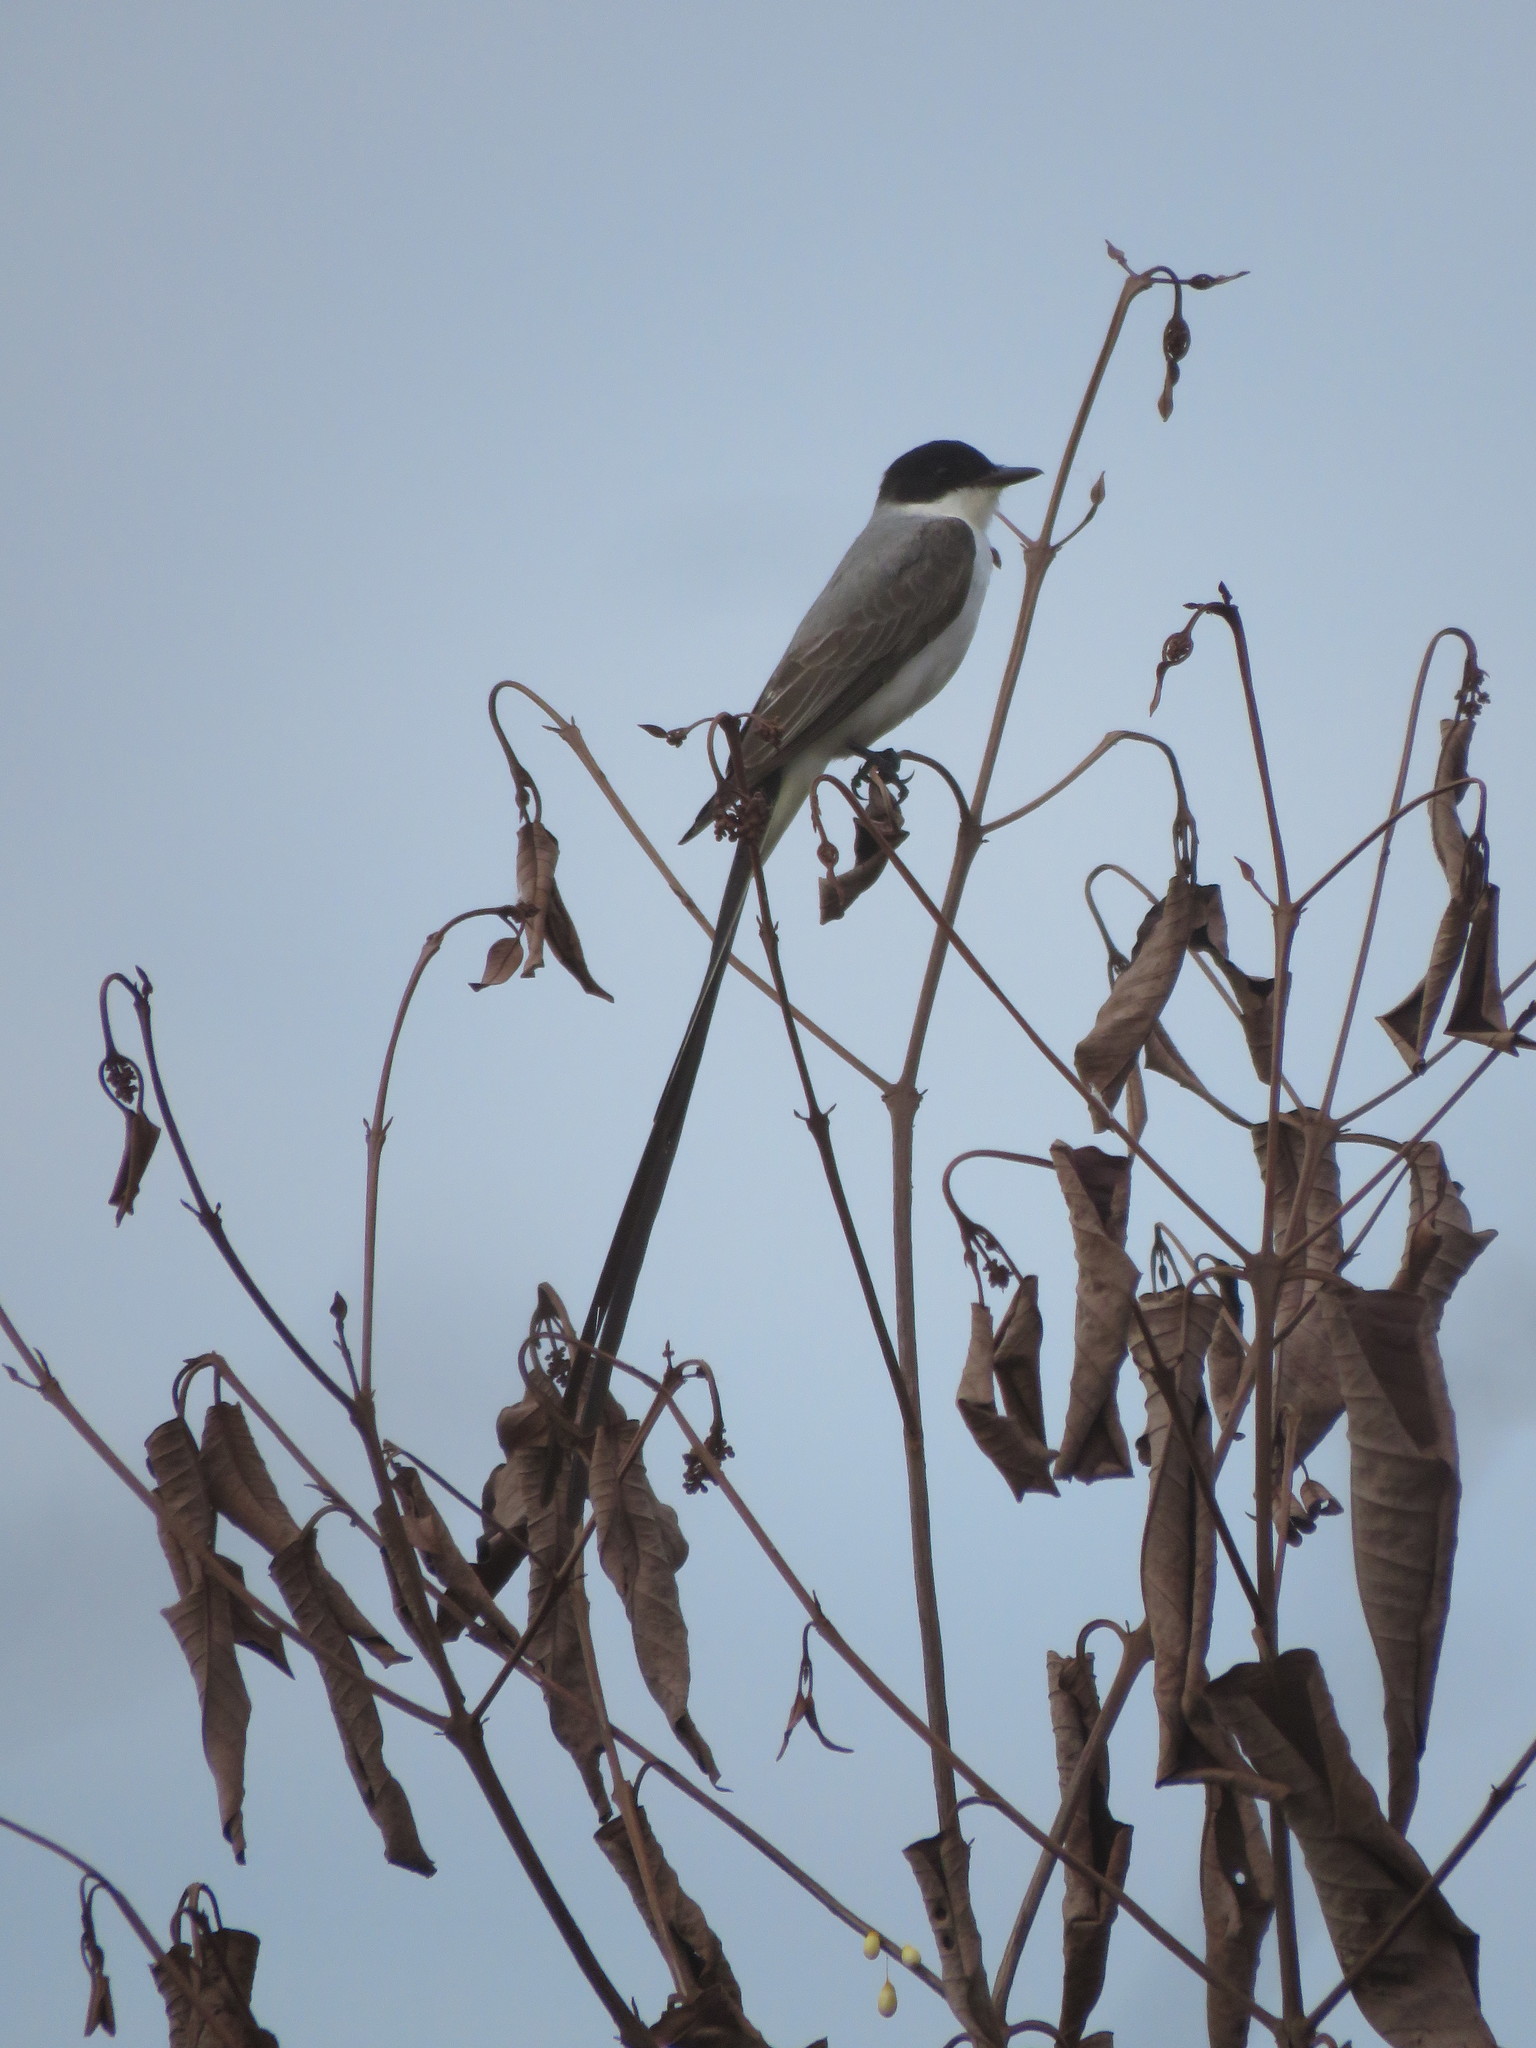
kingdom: Animalia
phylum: Chordata
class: Aves
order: Passeriformes
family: Tyrannidae
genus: Tyrannus
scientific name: Tyrannus savana
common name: Fork-tailed flycatcher
